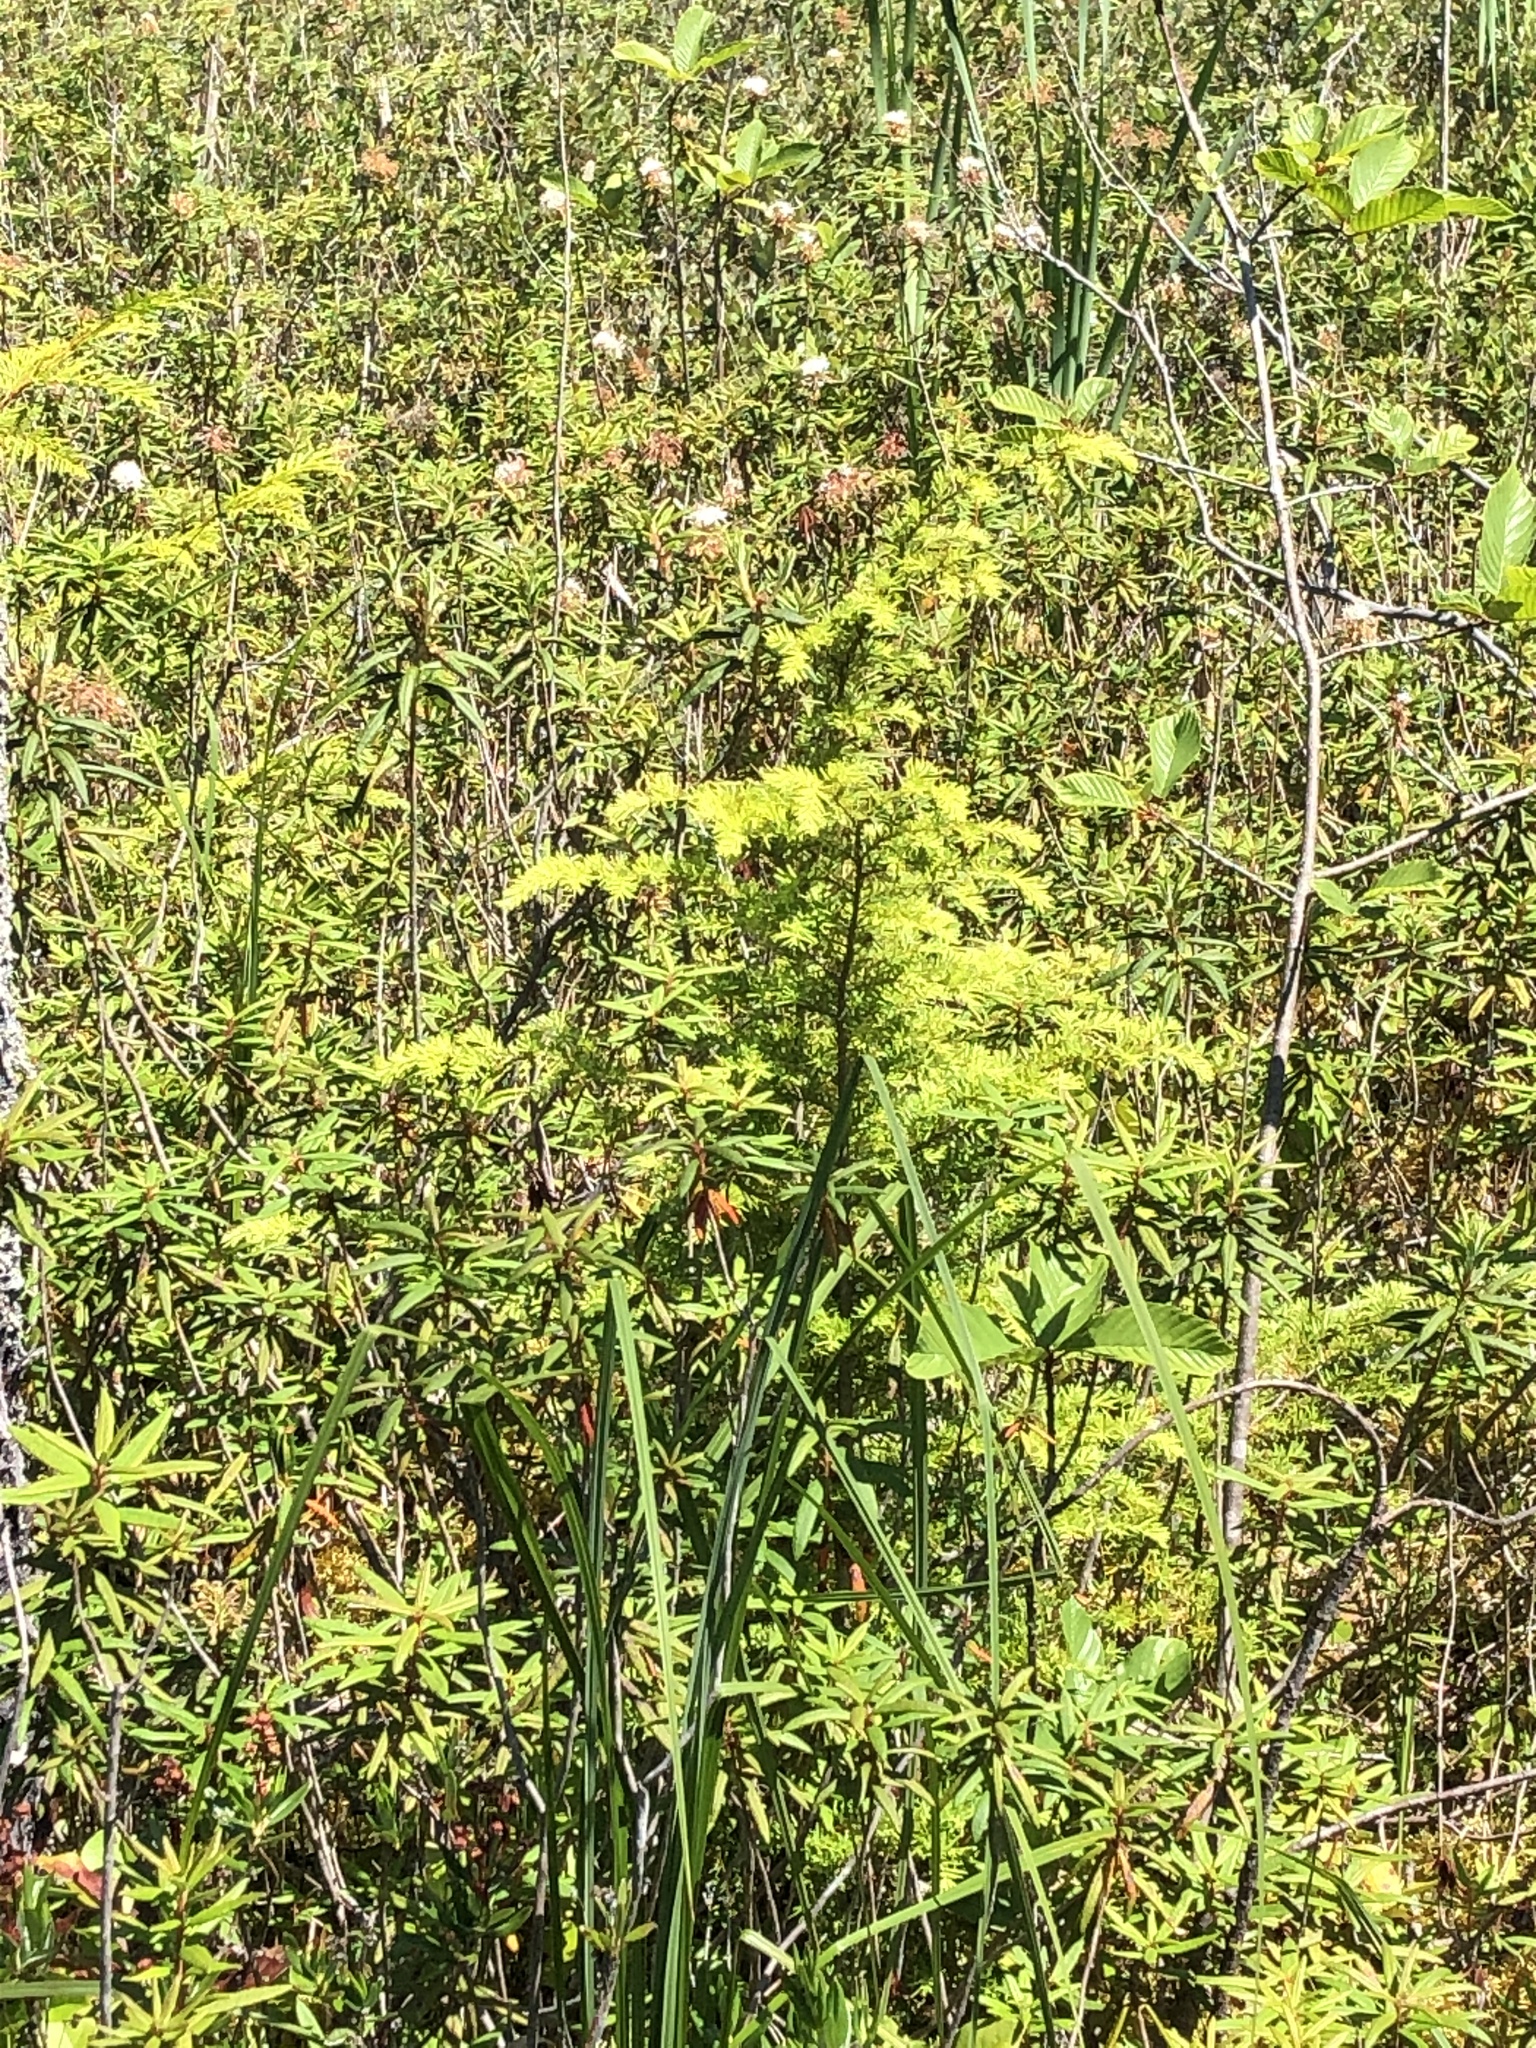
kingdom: Plantae
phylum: Tracheophyta
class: Pinopsida
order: Pinales
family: Pinaceae
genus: Tsuga
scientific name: Tsuga heterophylla
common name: Western hemlock
